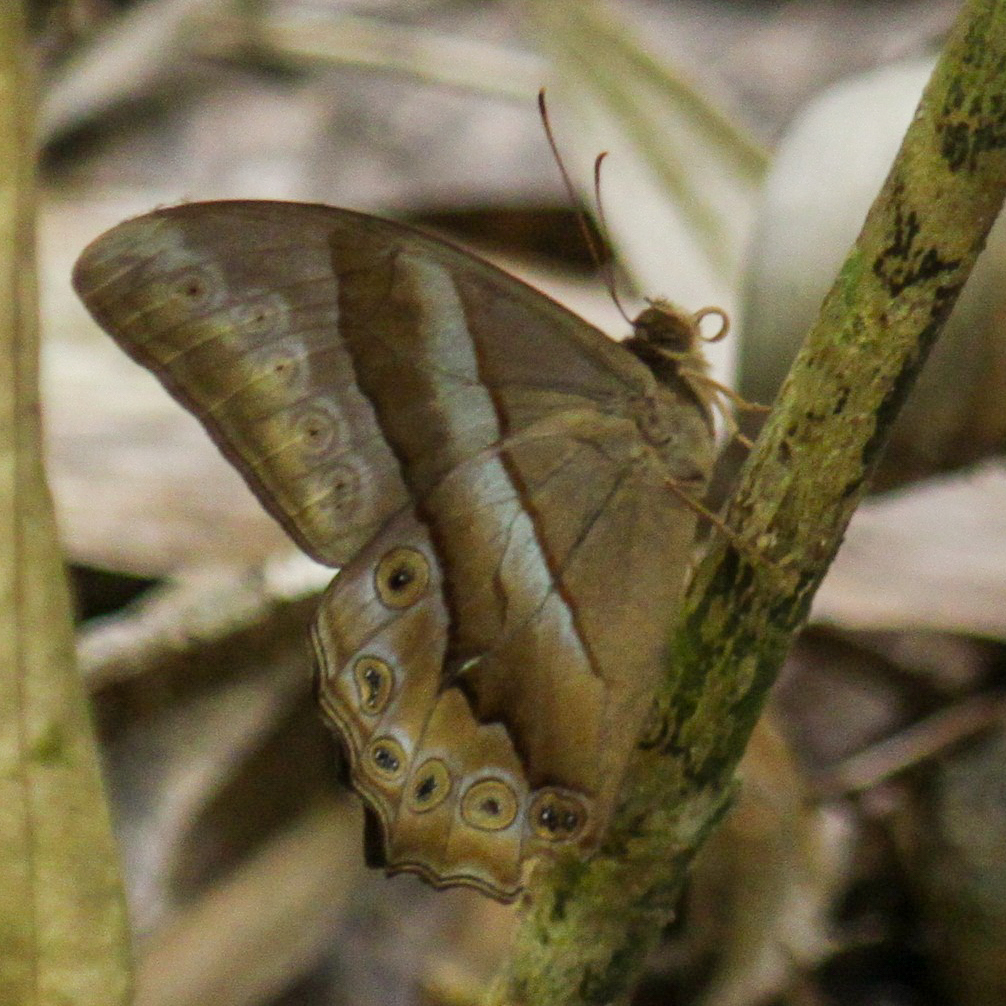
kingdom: Animalia
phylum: Arthropoda
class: Insecta
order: Lepidoptera
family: Nymphalidae
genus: Lethe
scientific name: Lethe mekara
